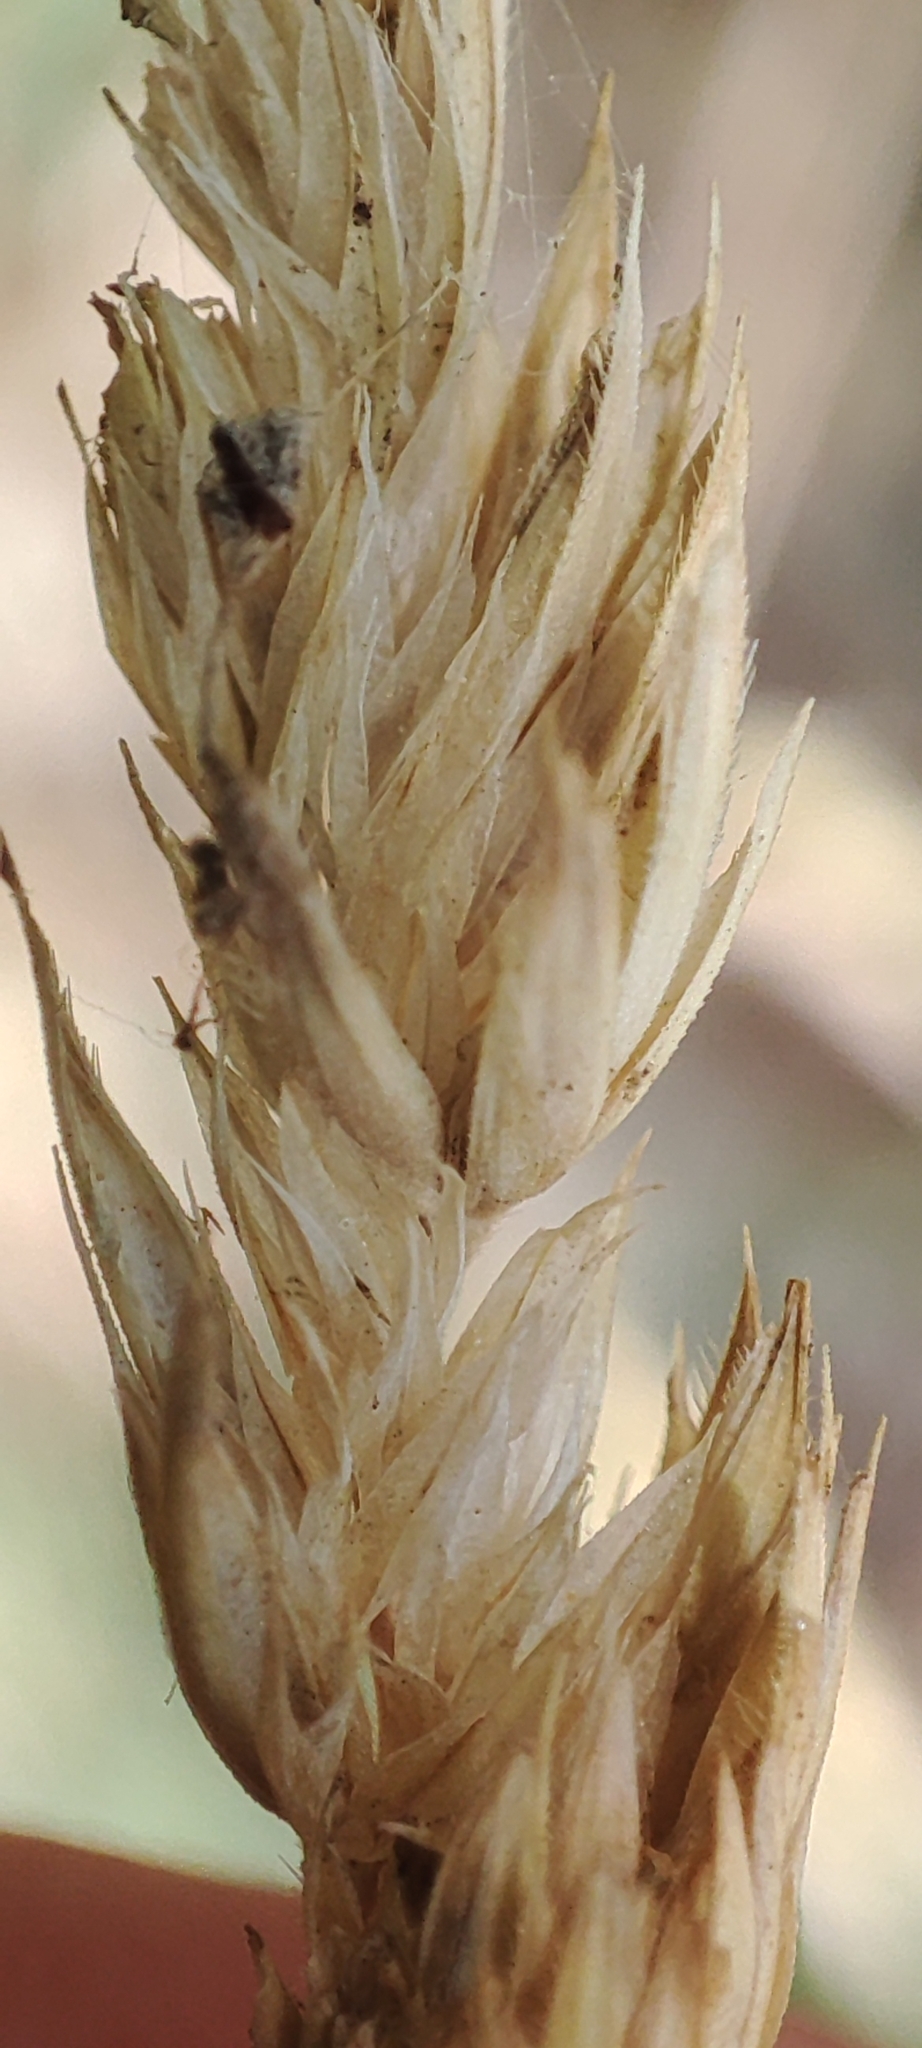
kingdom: Plantae
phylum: Tracheophyta
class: Liliopsida
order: Poales
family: Poaceae
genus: Dactylis
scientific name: Dactylis glomerata
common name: Orchardgrass
